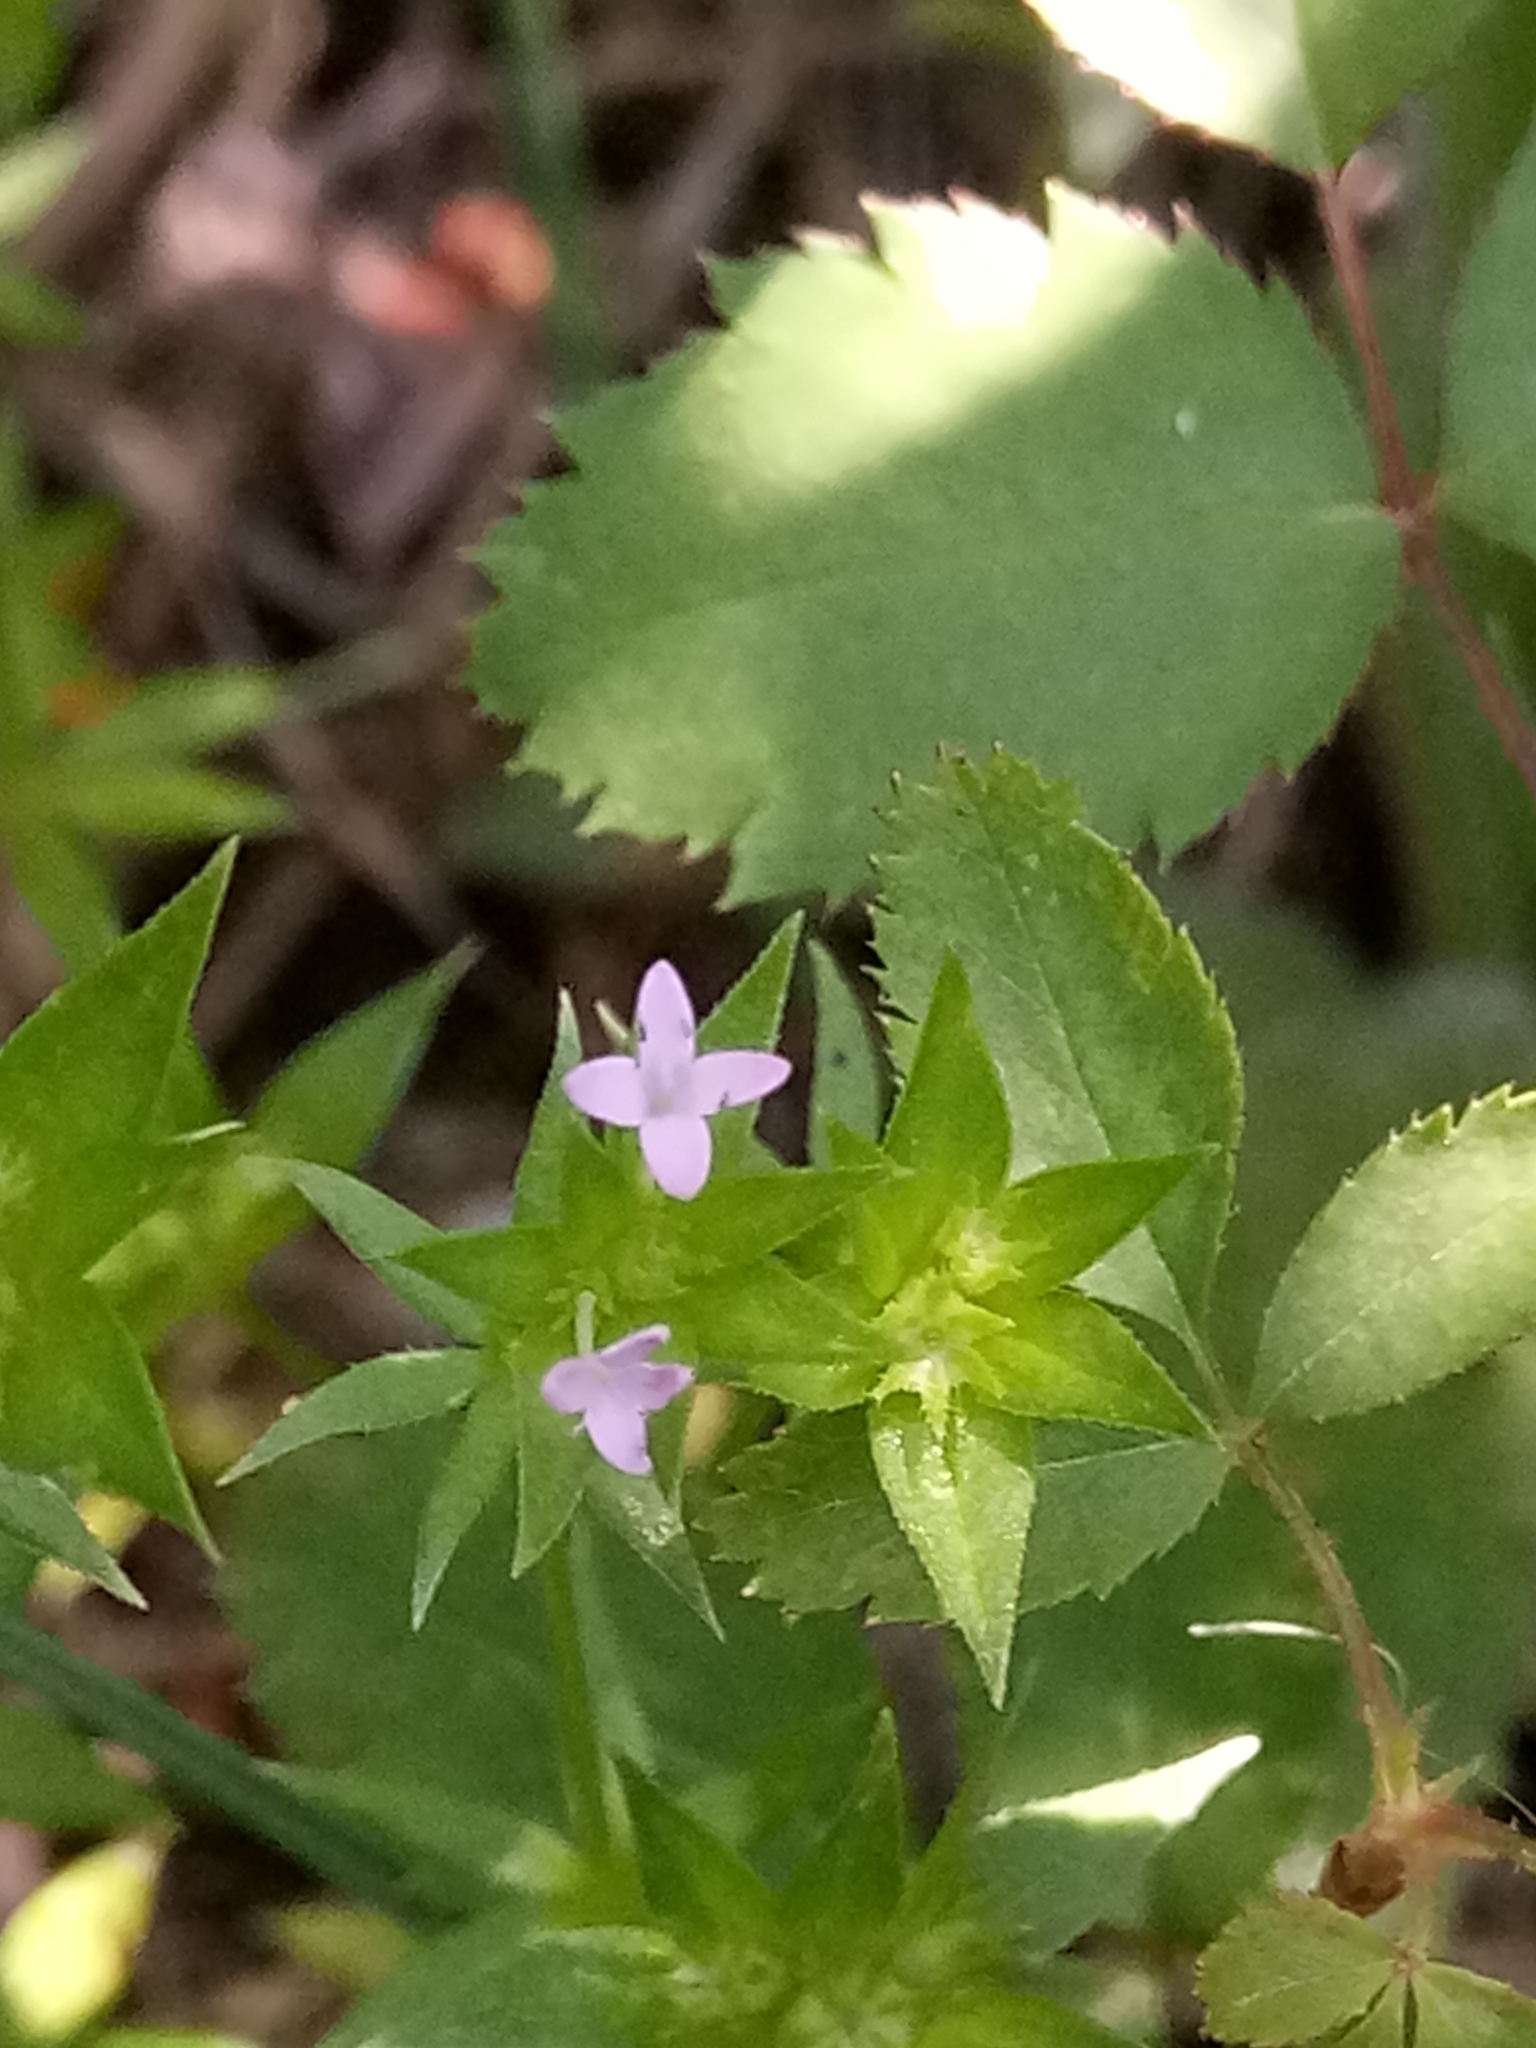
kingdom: Plantae
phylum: Tracheophyta
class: Magnoliopsida
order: Gentianales
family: Rubiaceae
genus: Sherardia
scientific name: Sherardia arvensis
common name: Field madder
